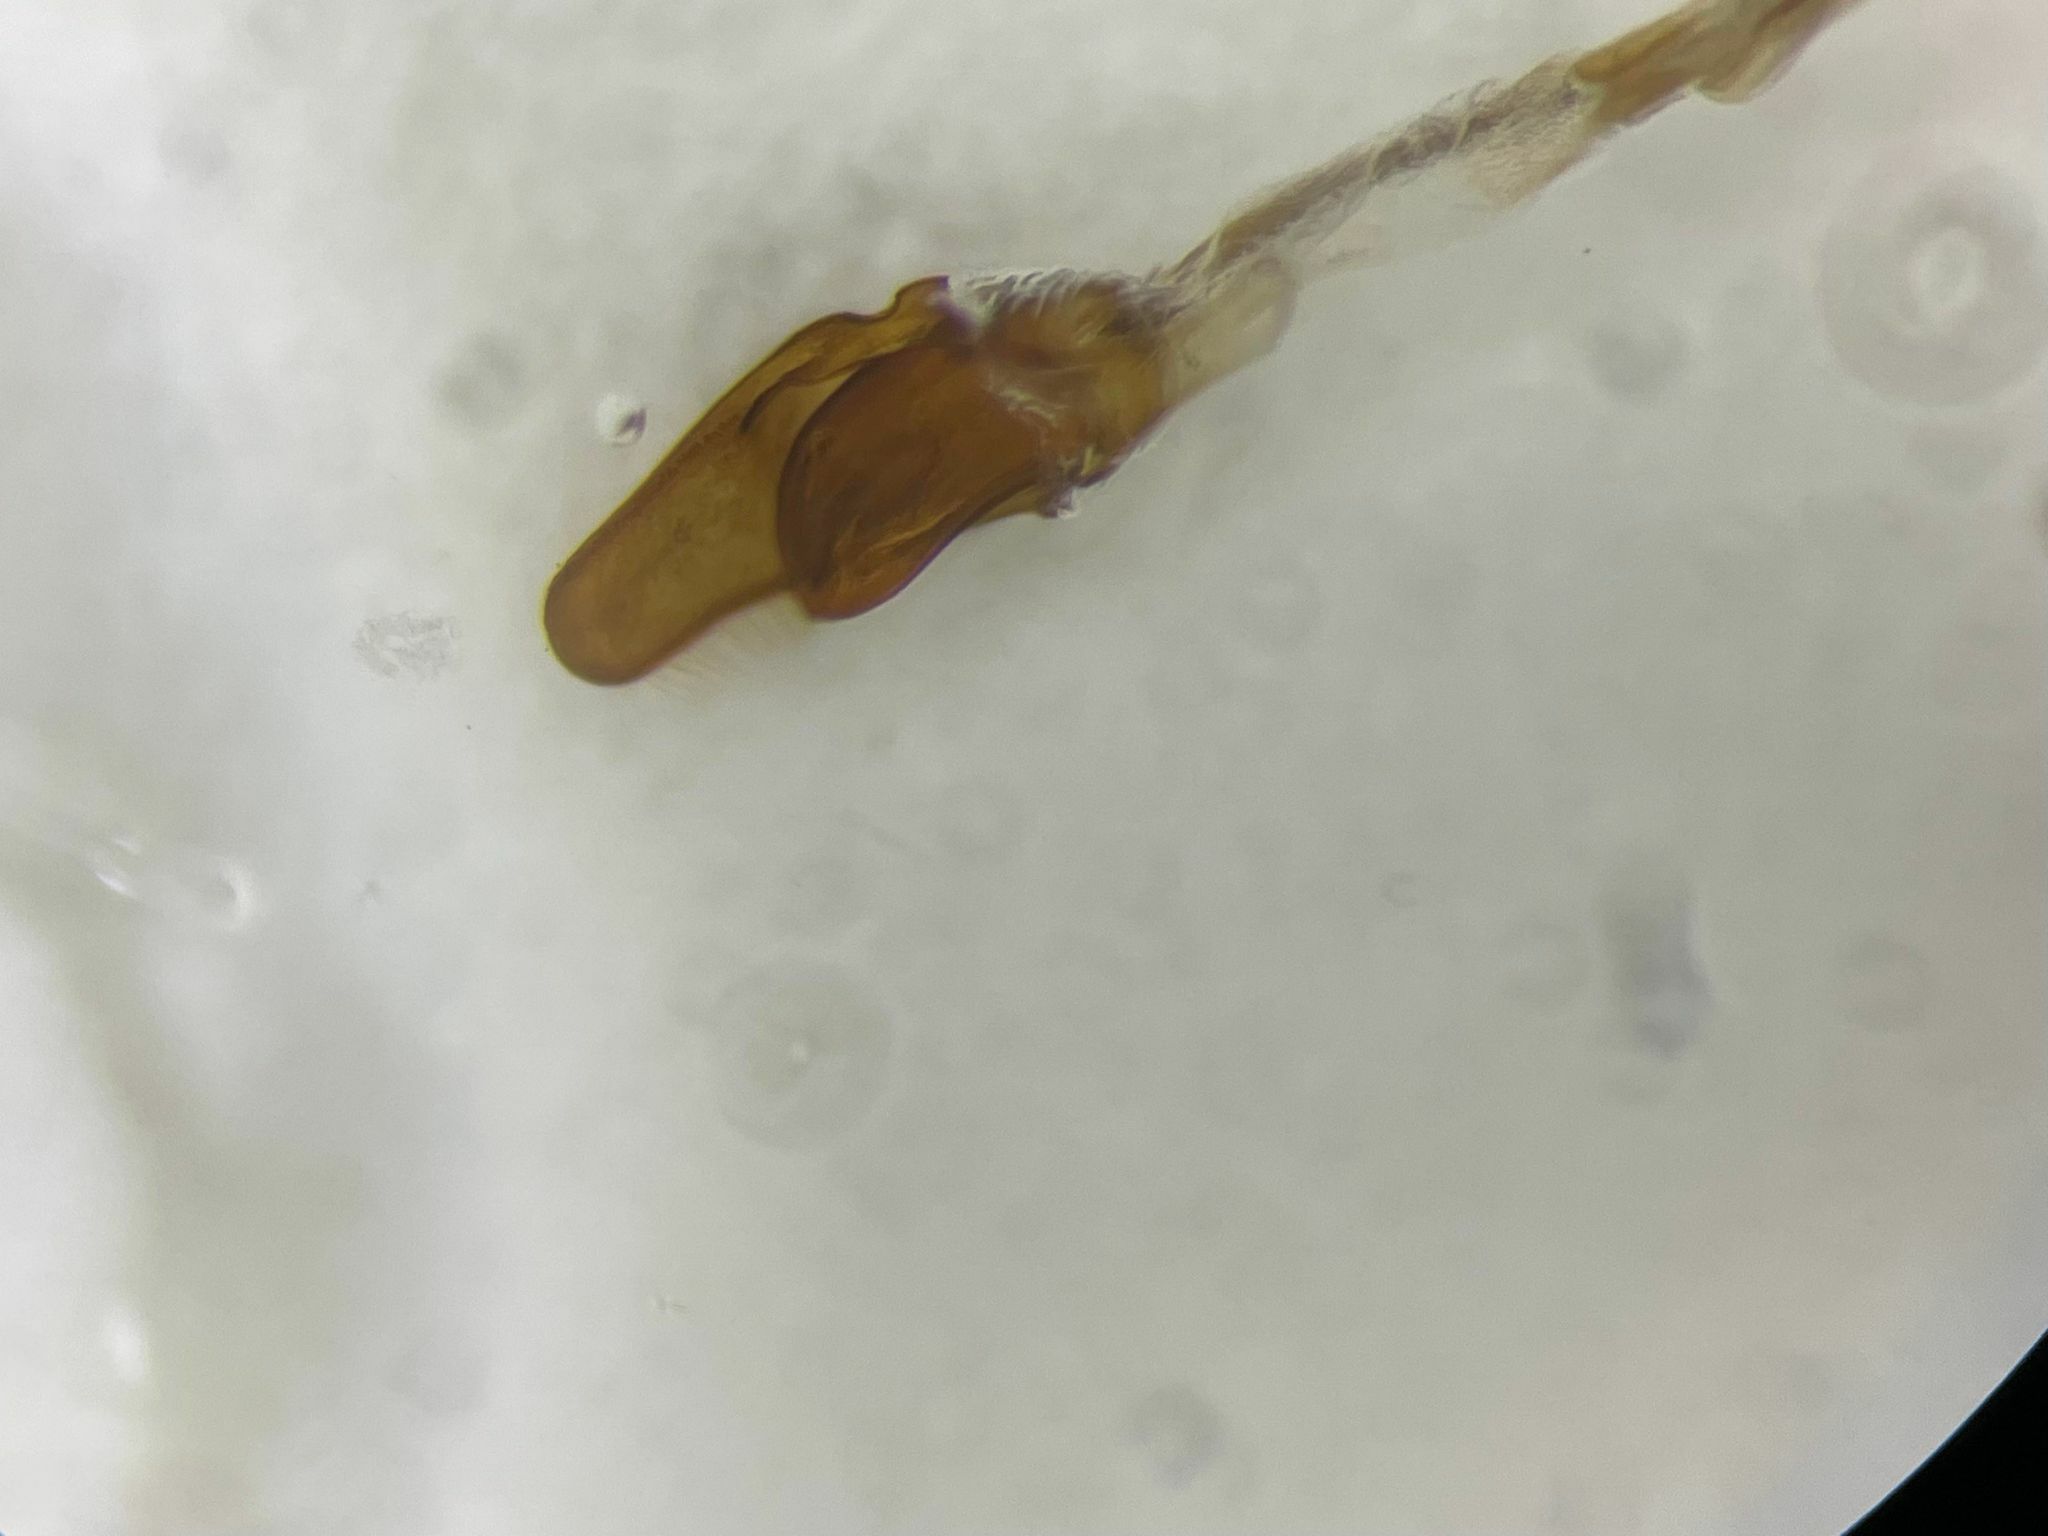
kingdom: Animalia
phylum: Arthropoda
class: Insecta
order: Coleoptera
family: Nitidulidae
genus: Cychramus
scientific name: Cychramus adustus
